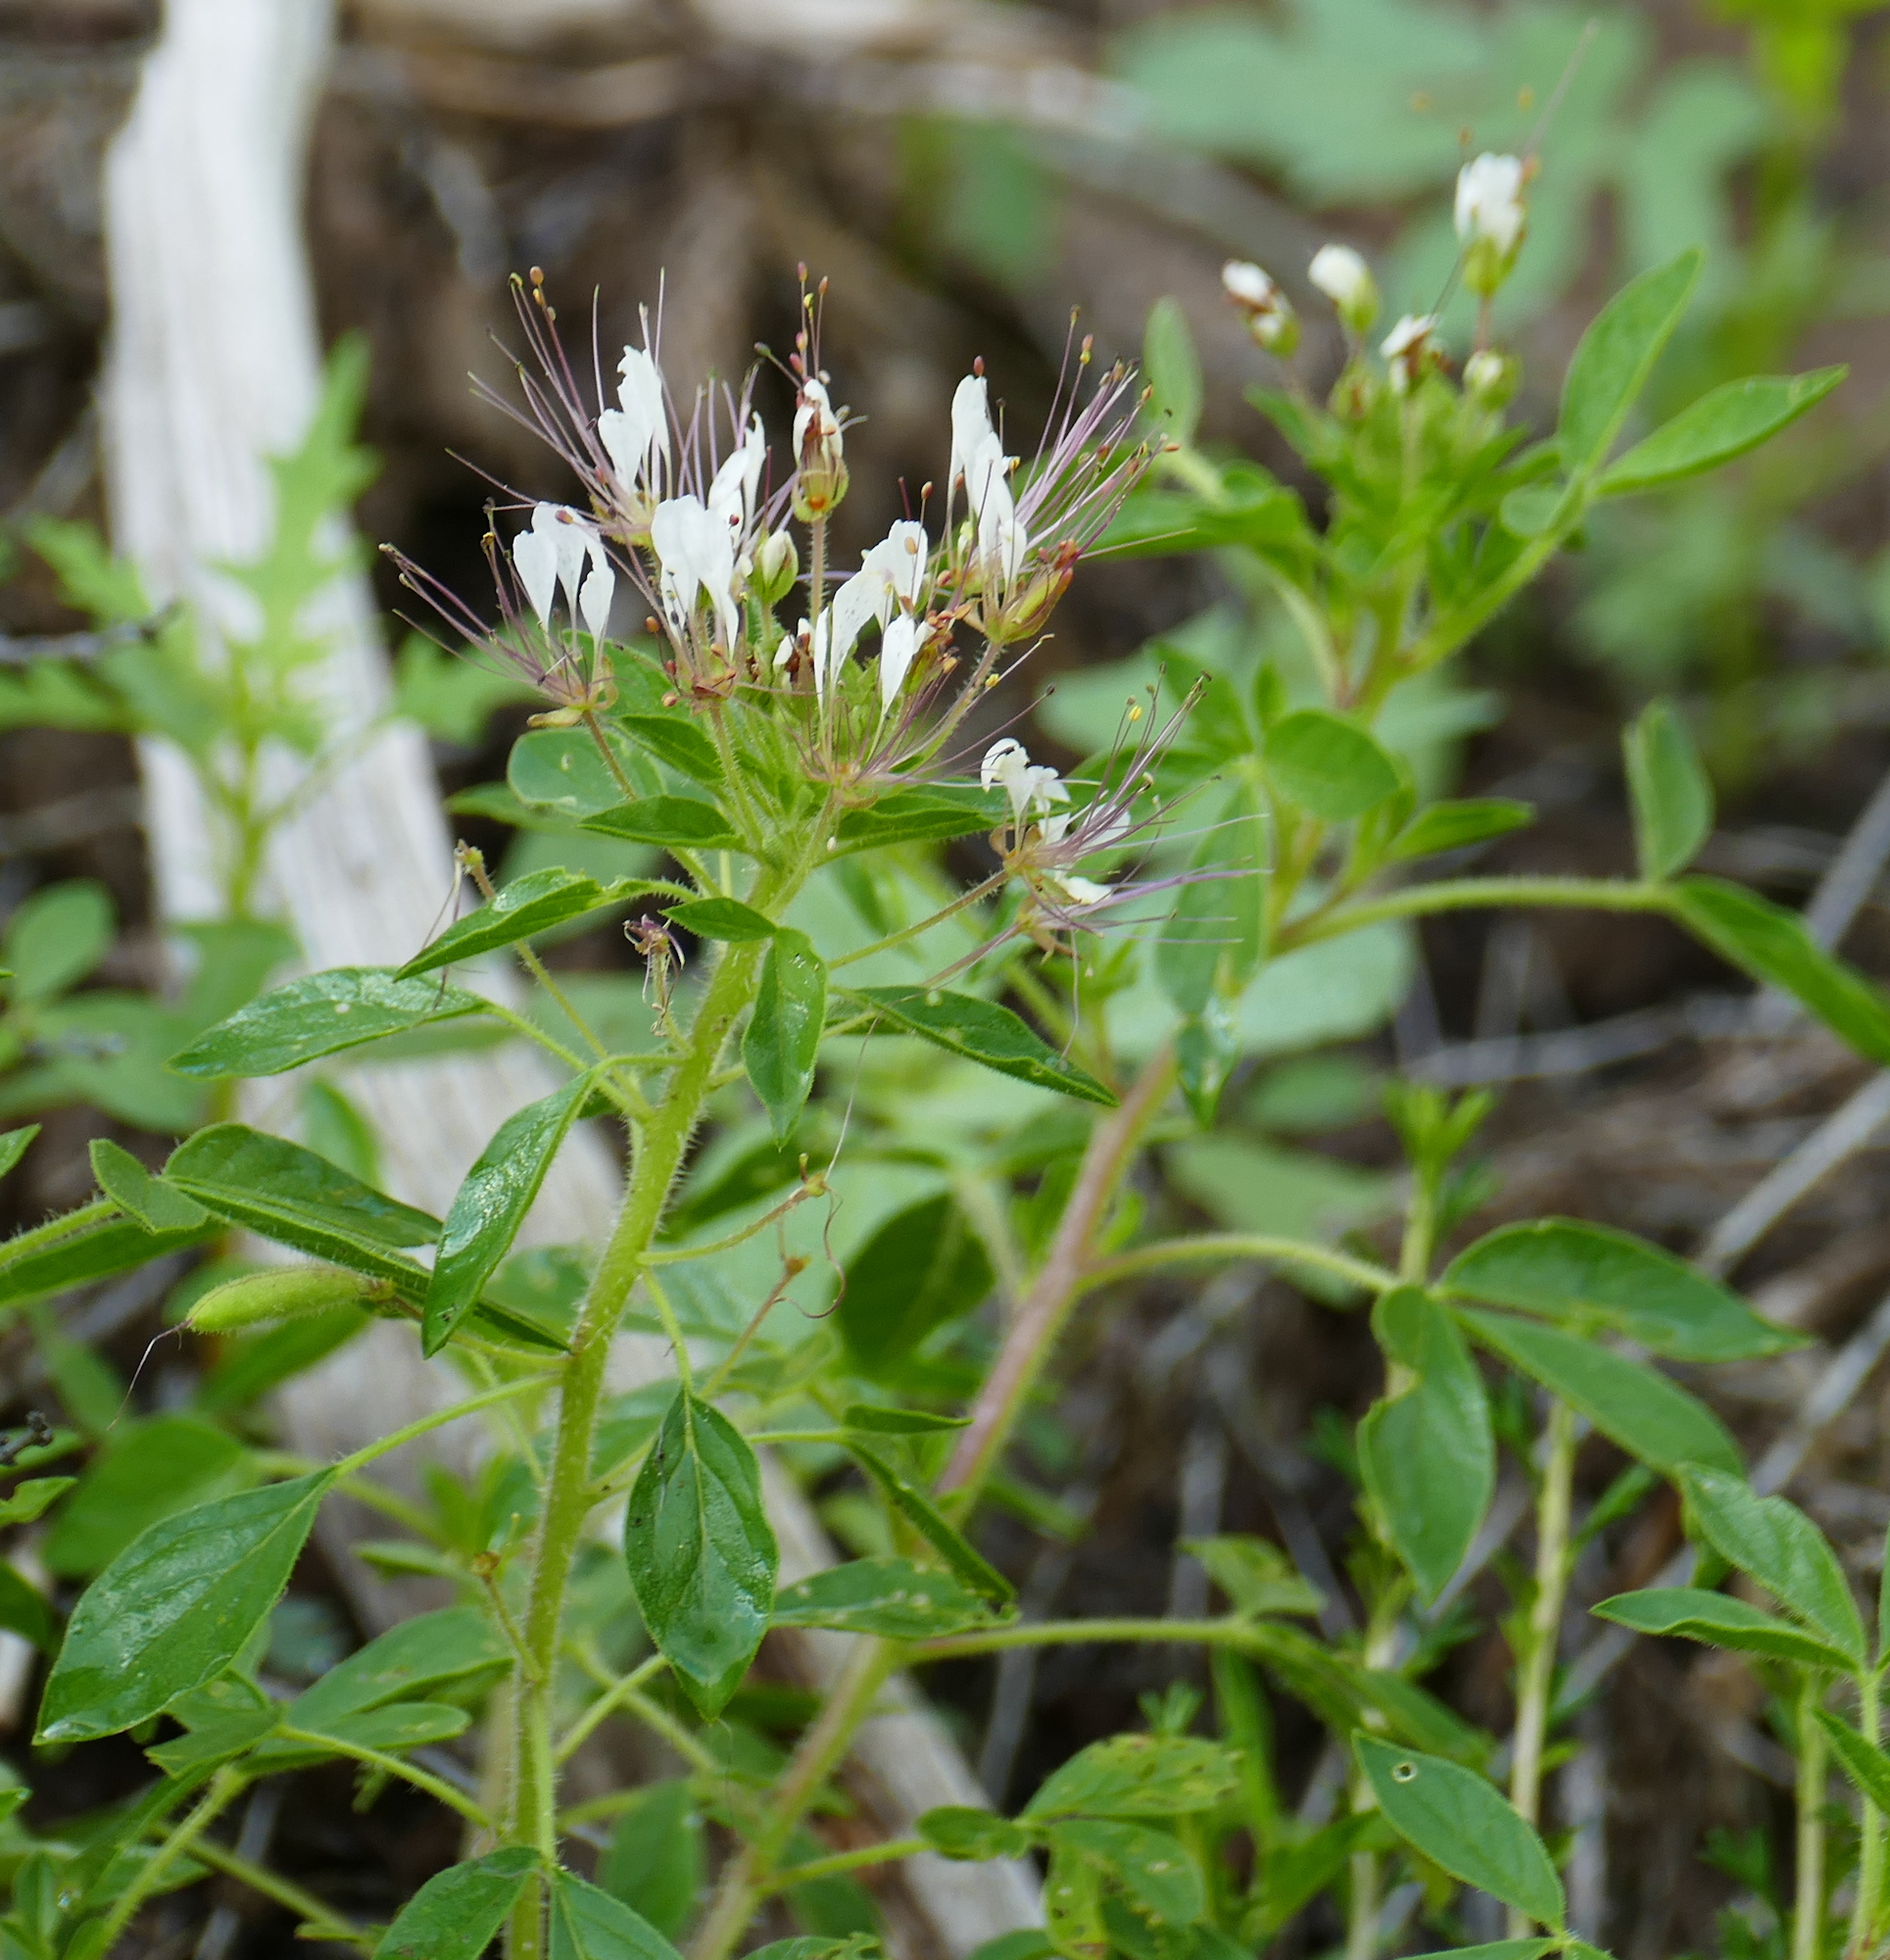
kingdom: Plantae
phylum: Tracheophyta
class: Magnoliopsida
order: Brassicales
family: Cleomaceae
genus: Polanisia
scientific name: Polanisia dodecandra
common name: Clammyweed
